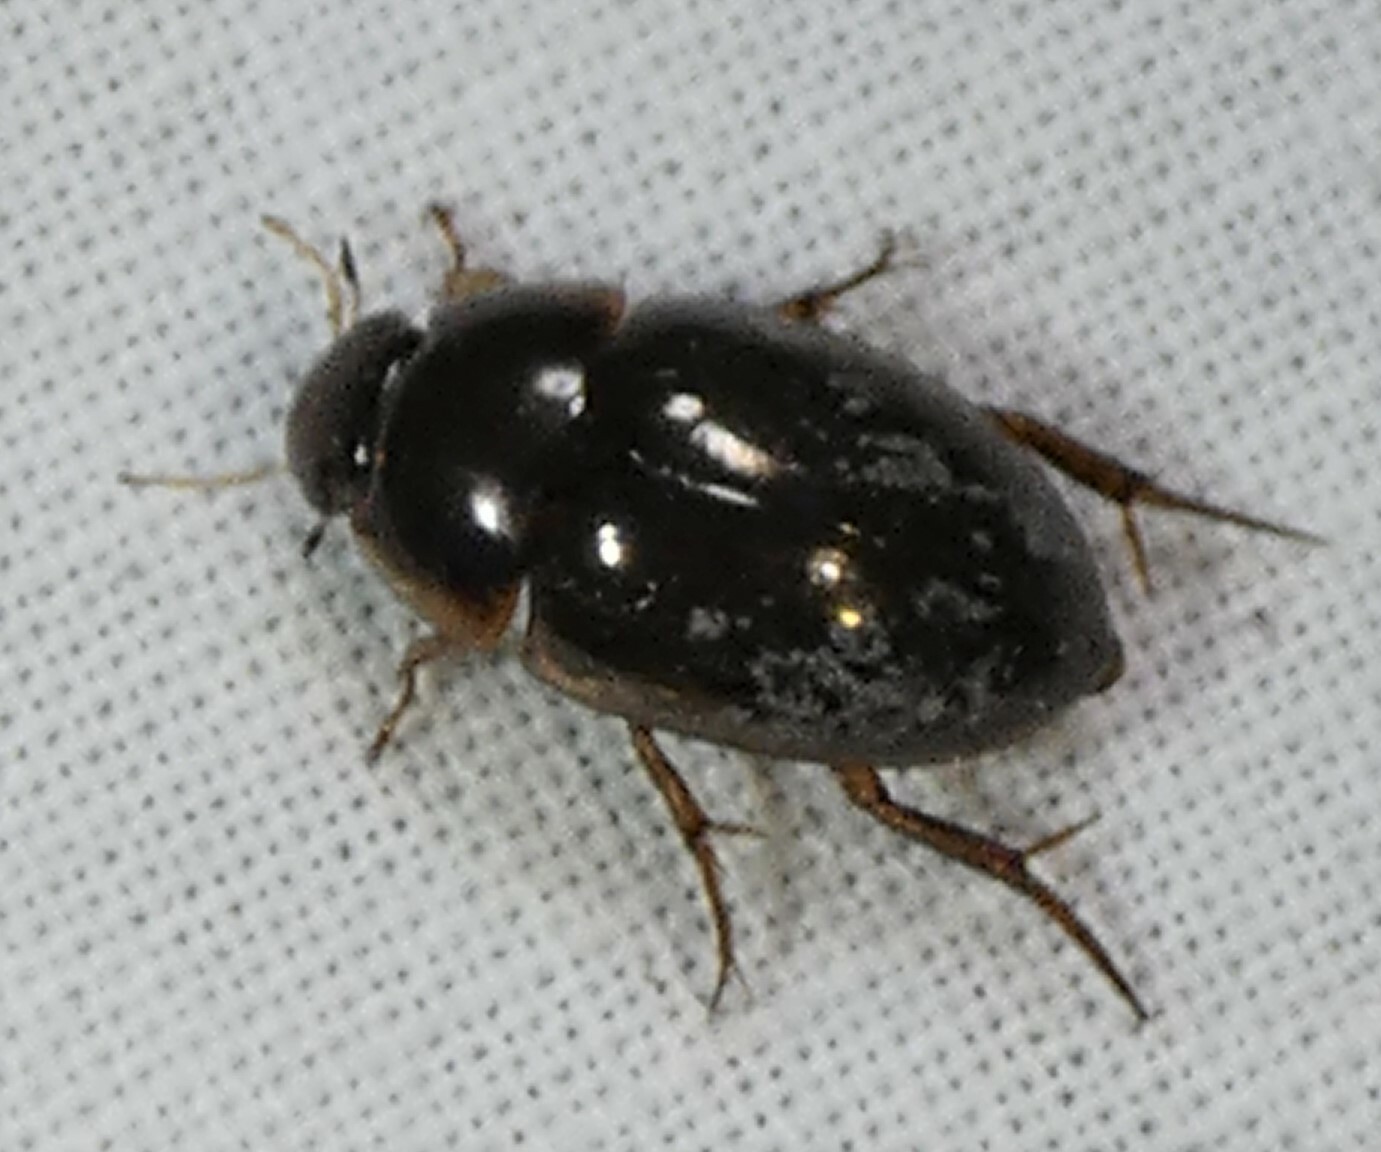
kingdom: Animalia
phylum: Arthropoda
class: Insecta
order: Coleoptera
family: Hydrophilidae
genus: Tropisternus
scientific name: Tropisternus collaris
